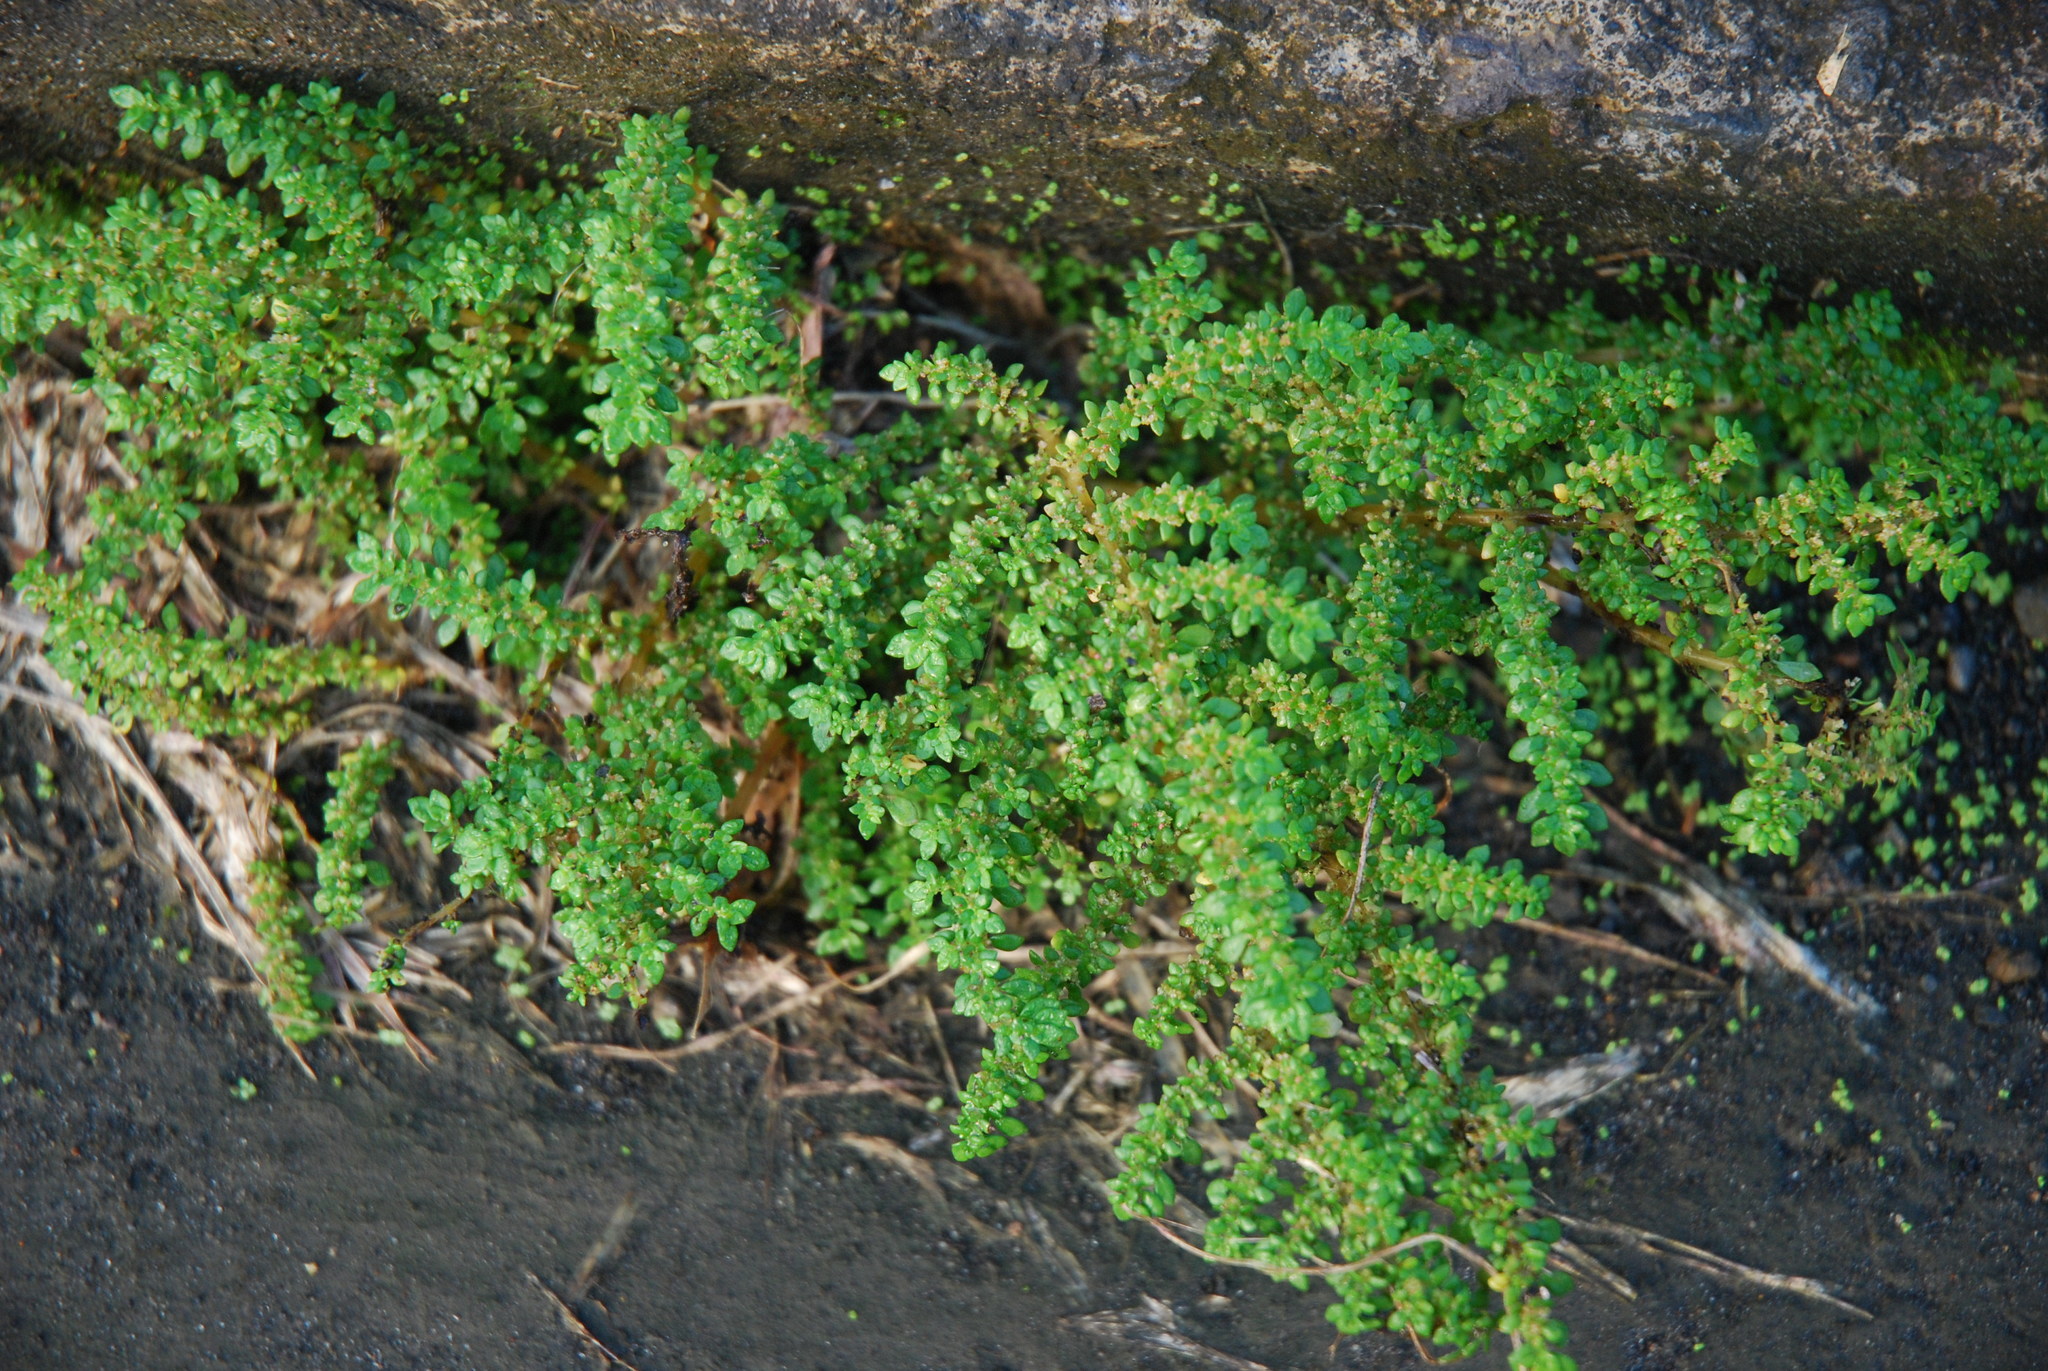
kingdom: Plantae
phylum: Tracheophyta
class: Magnoliopsida
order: Rosales
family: Urticaceae
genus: Pilea
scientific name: Pilea microphylla
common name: Artillery-plant
